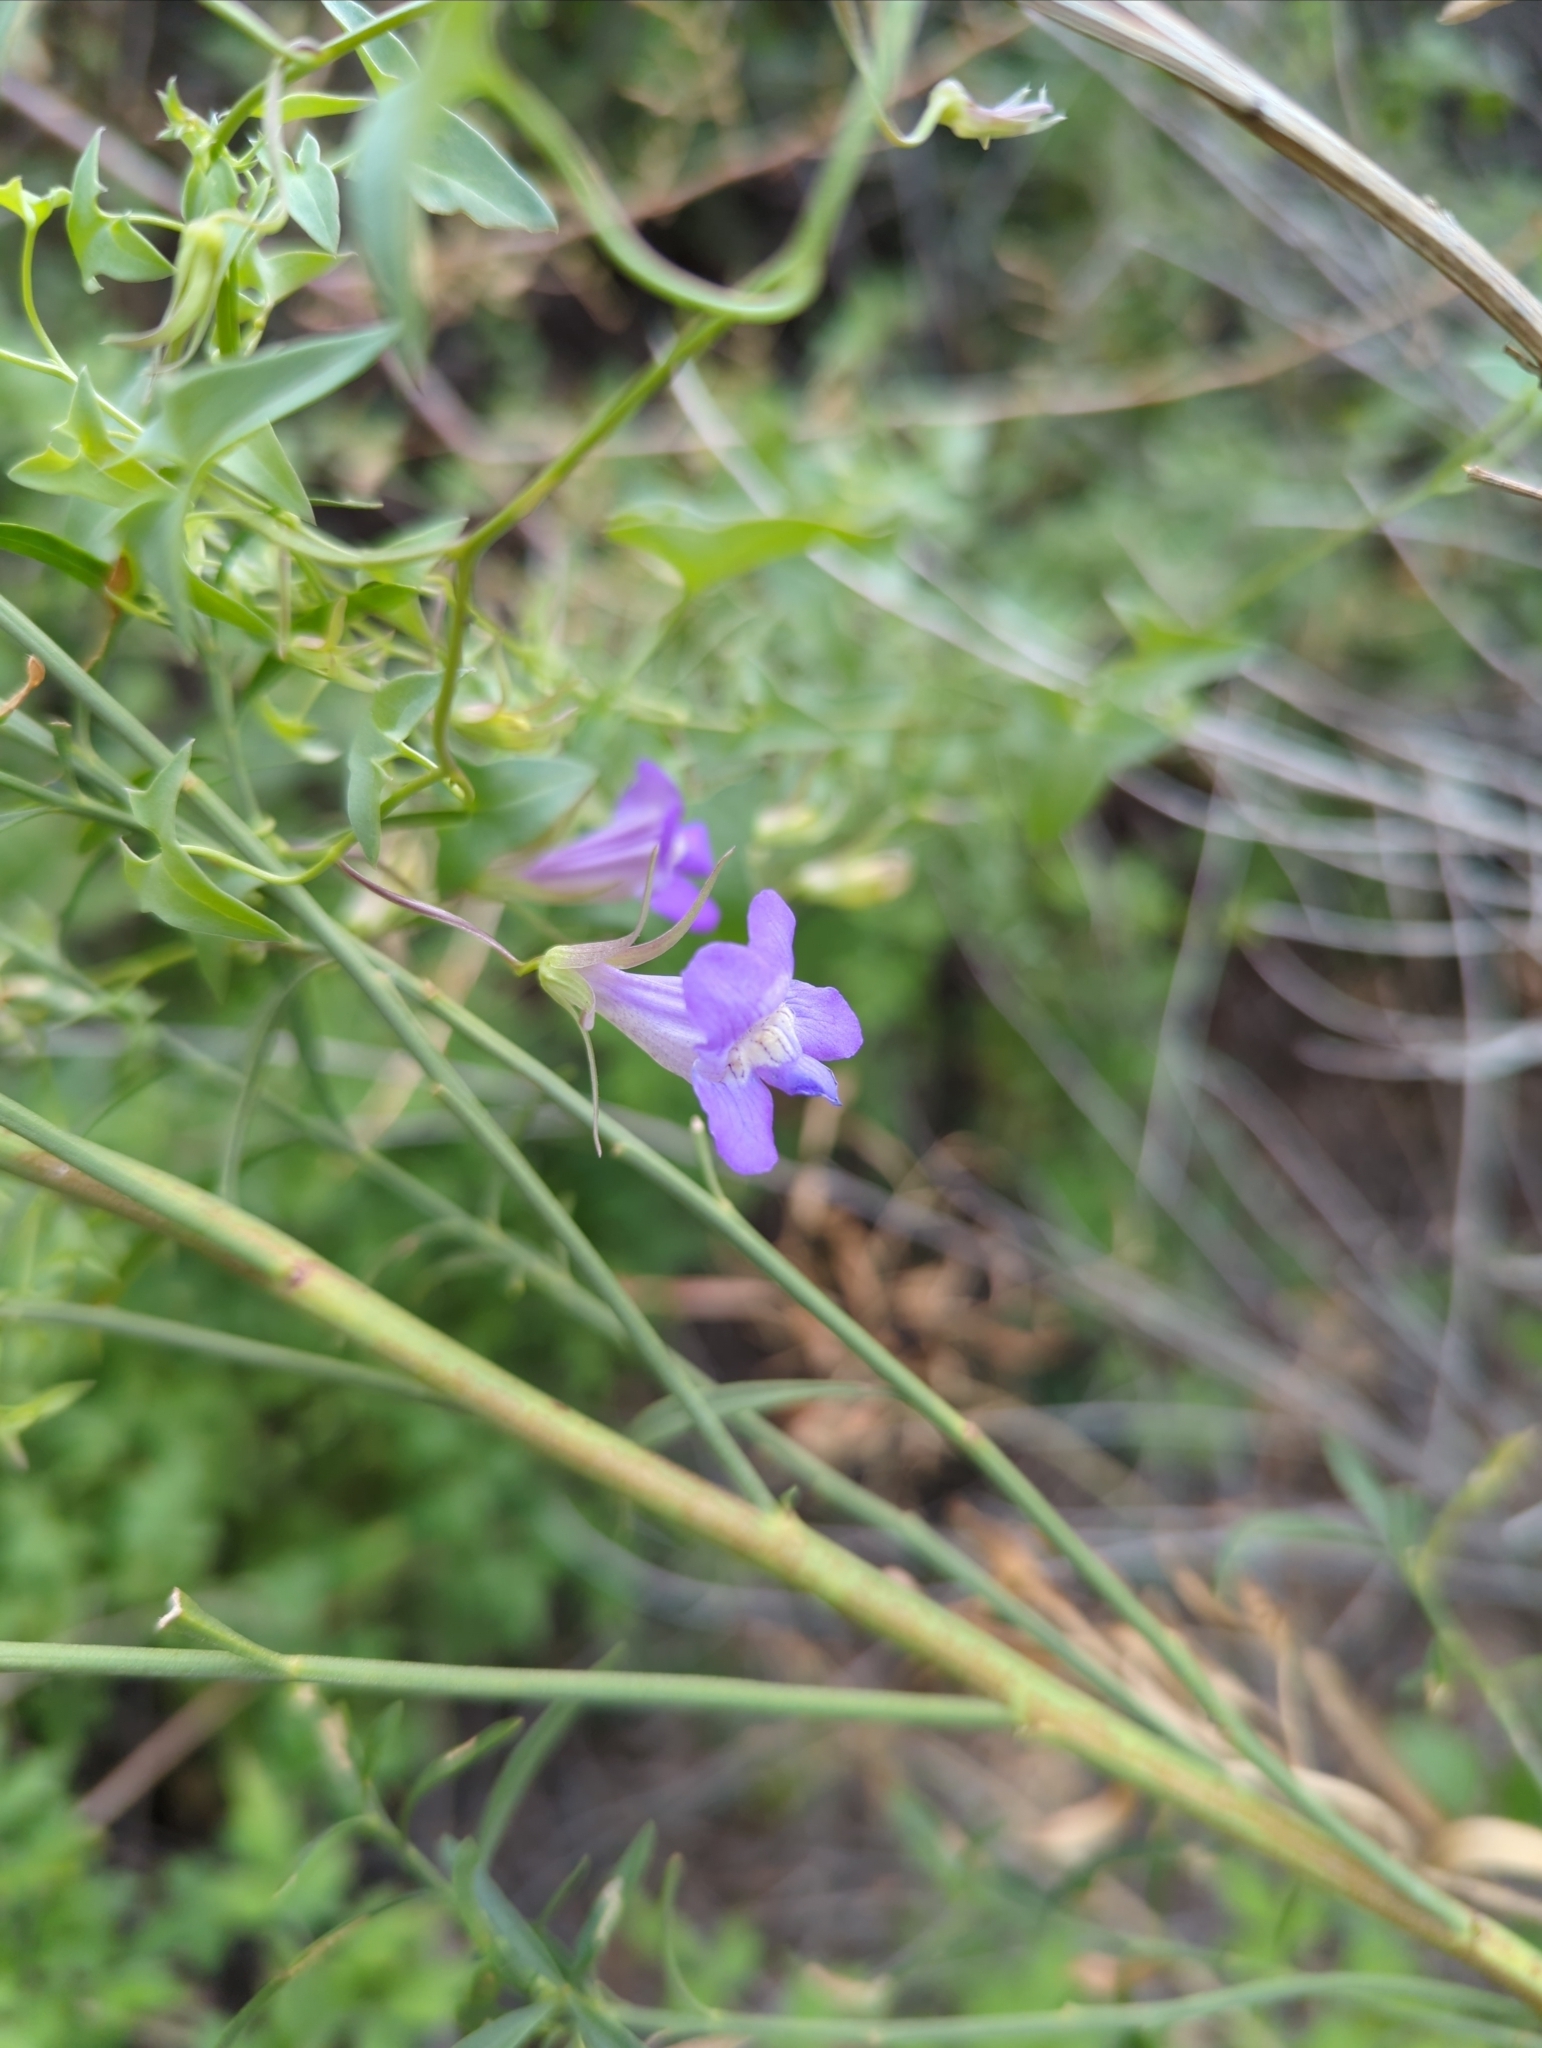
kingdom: Plantae
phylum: Tracheophyta
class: Magnoliopsida
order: Lamiales
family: Plantaginaceae
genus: Maurandella
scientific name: Maurandella antirrhiniflora
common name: Violet twining-snapdragon
